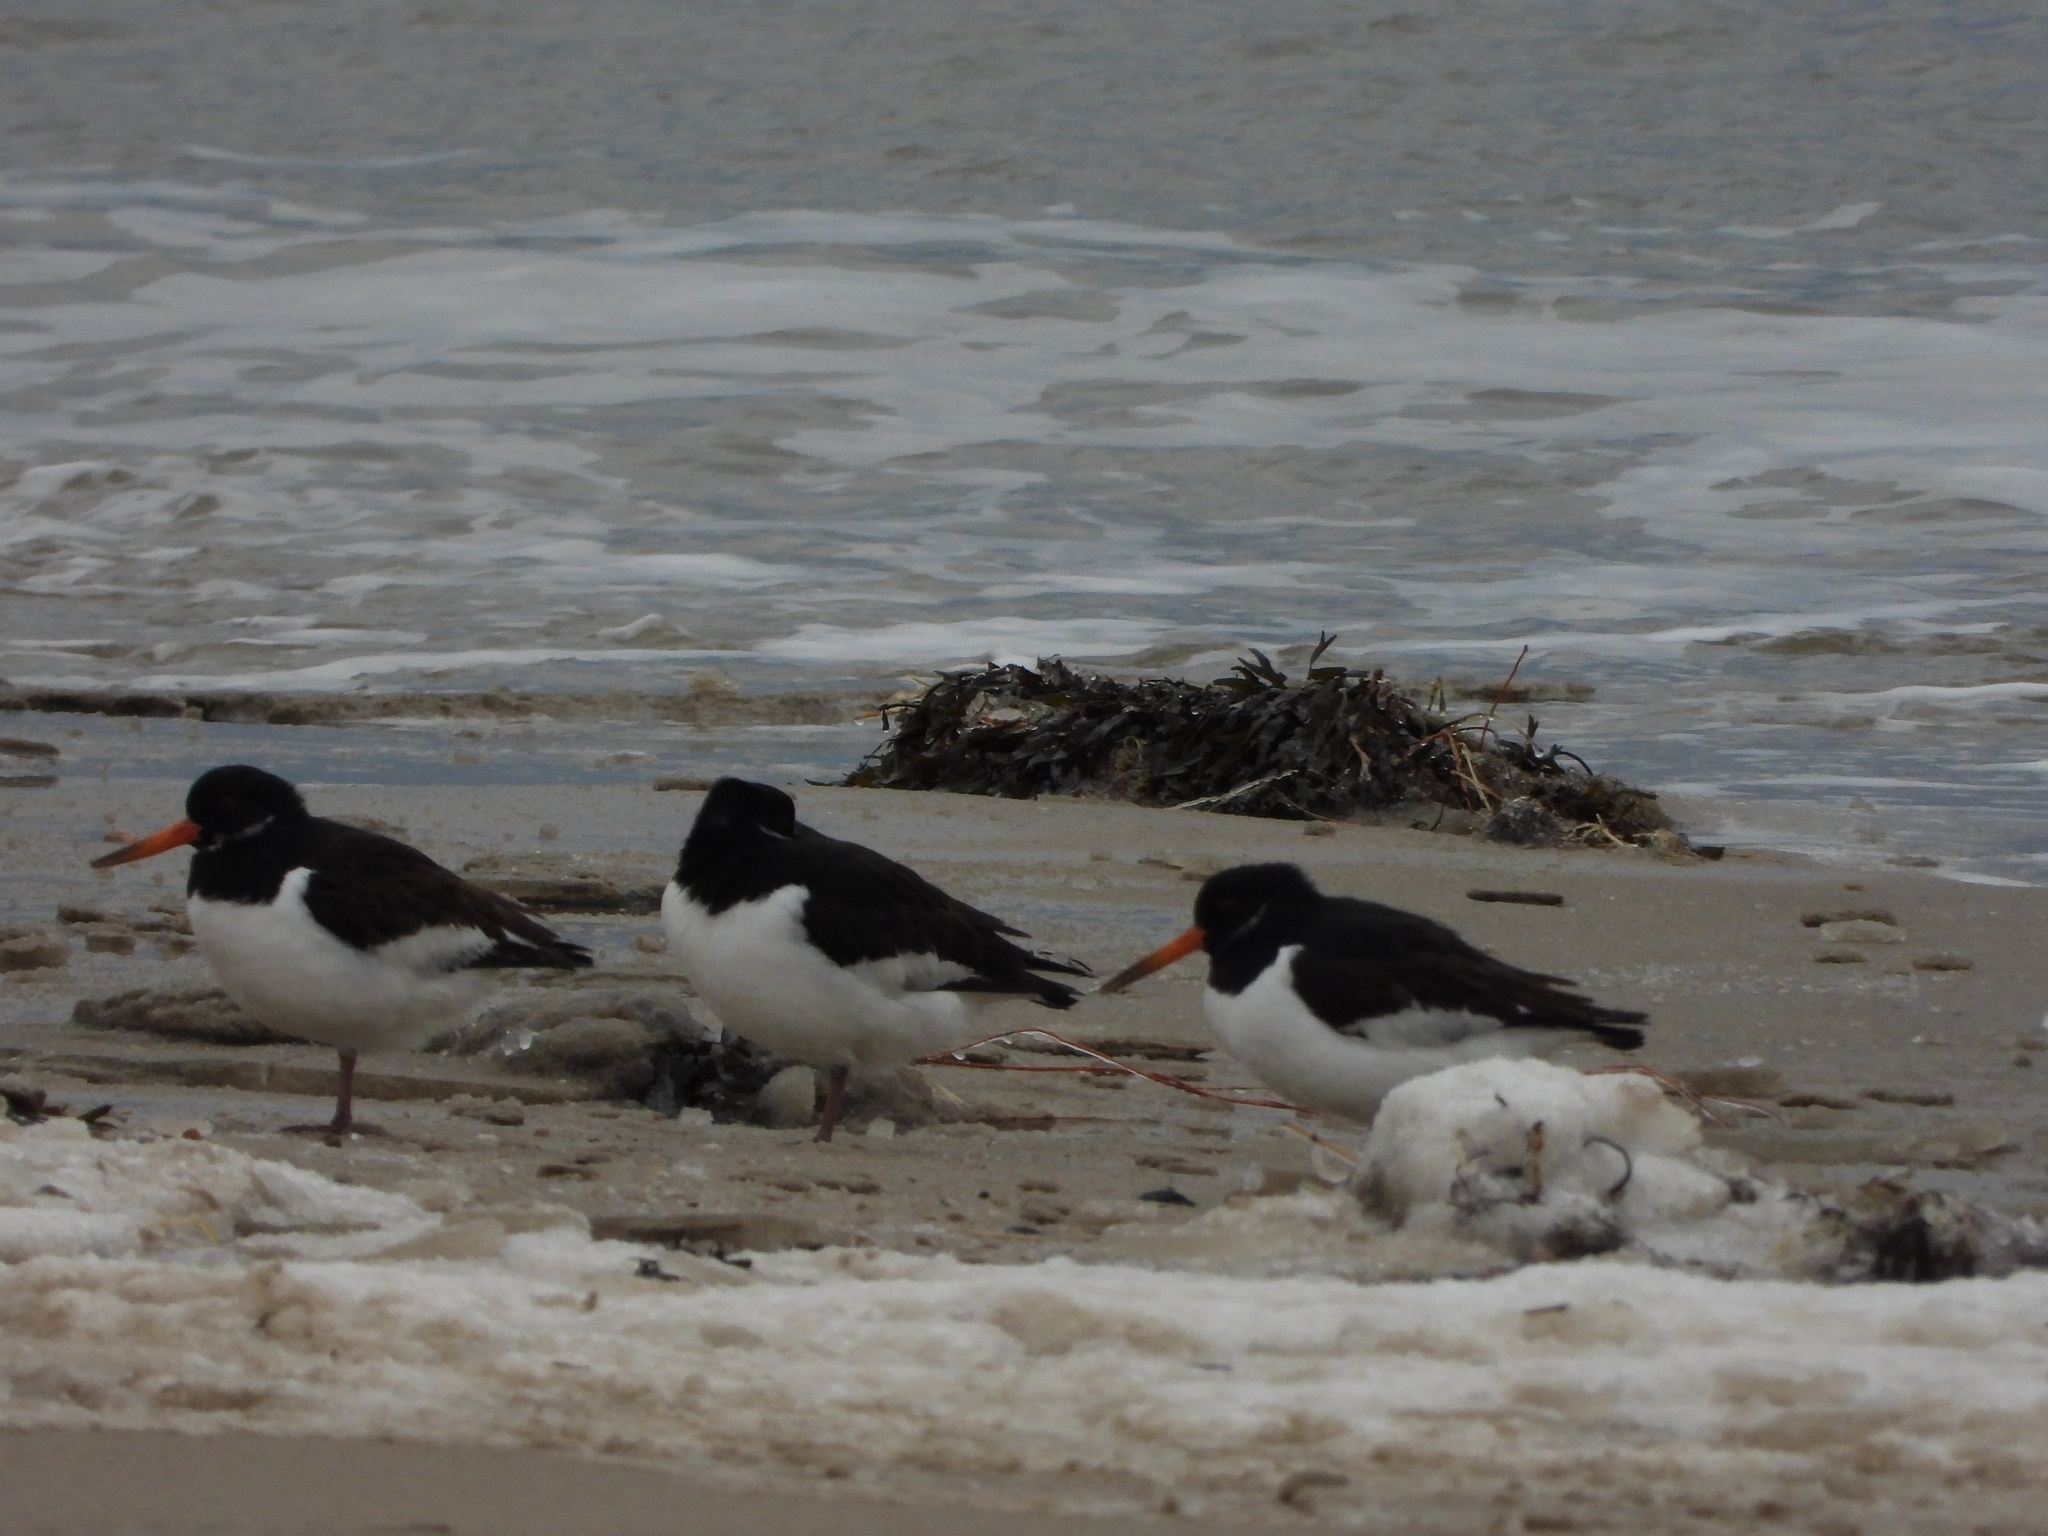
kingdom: Animalia
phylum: Chordata
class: Aves
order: Charadriiformes
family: Haematopodidae
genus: Haematopus
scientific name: Haematopus ostralegus
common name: Eurasian oystercatcher
